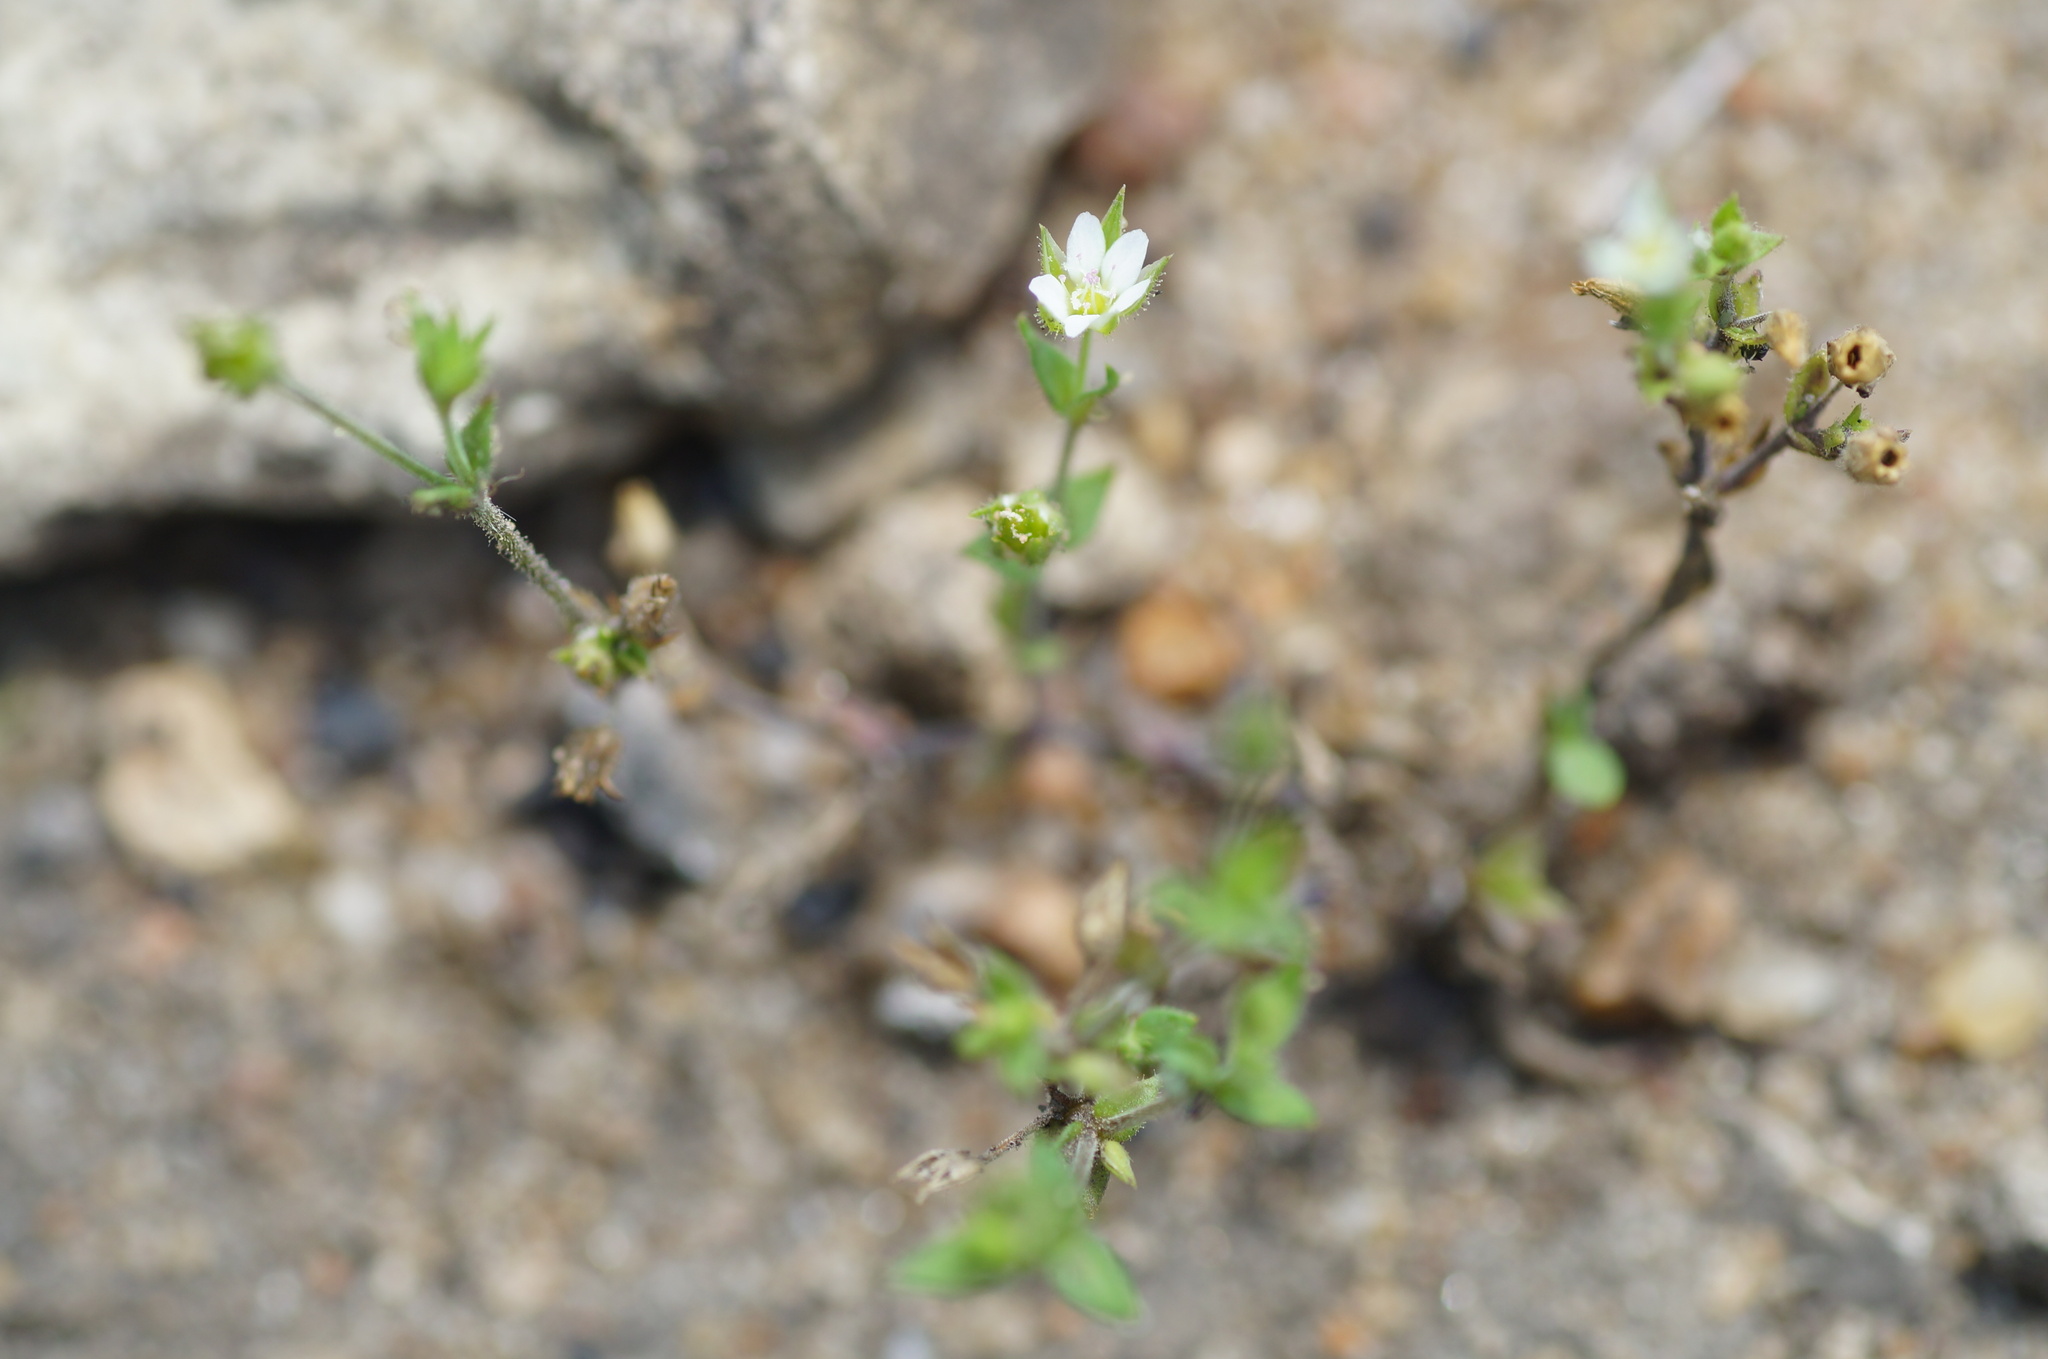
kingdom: Plantae
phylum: Tracheophyta
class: Magnoliopsida
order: Caryophyllales
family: Caryophyllaceae
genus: Arenaria
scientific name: Arenaria serpyllifolia
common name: Thyme-leaved sandwort
